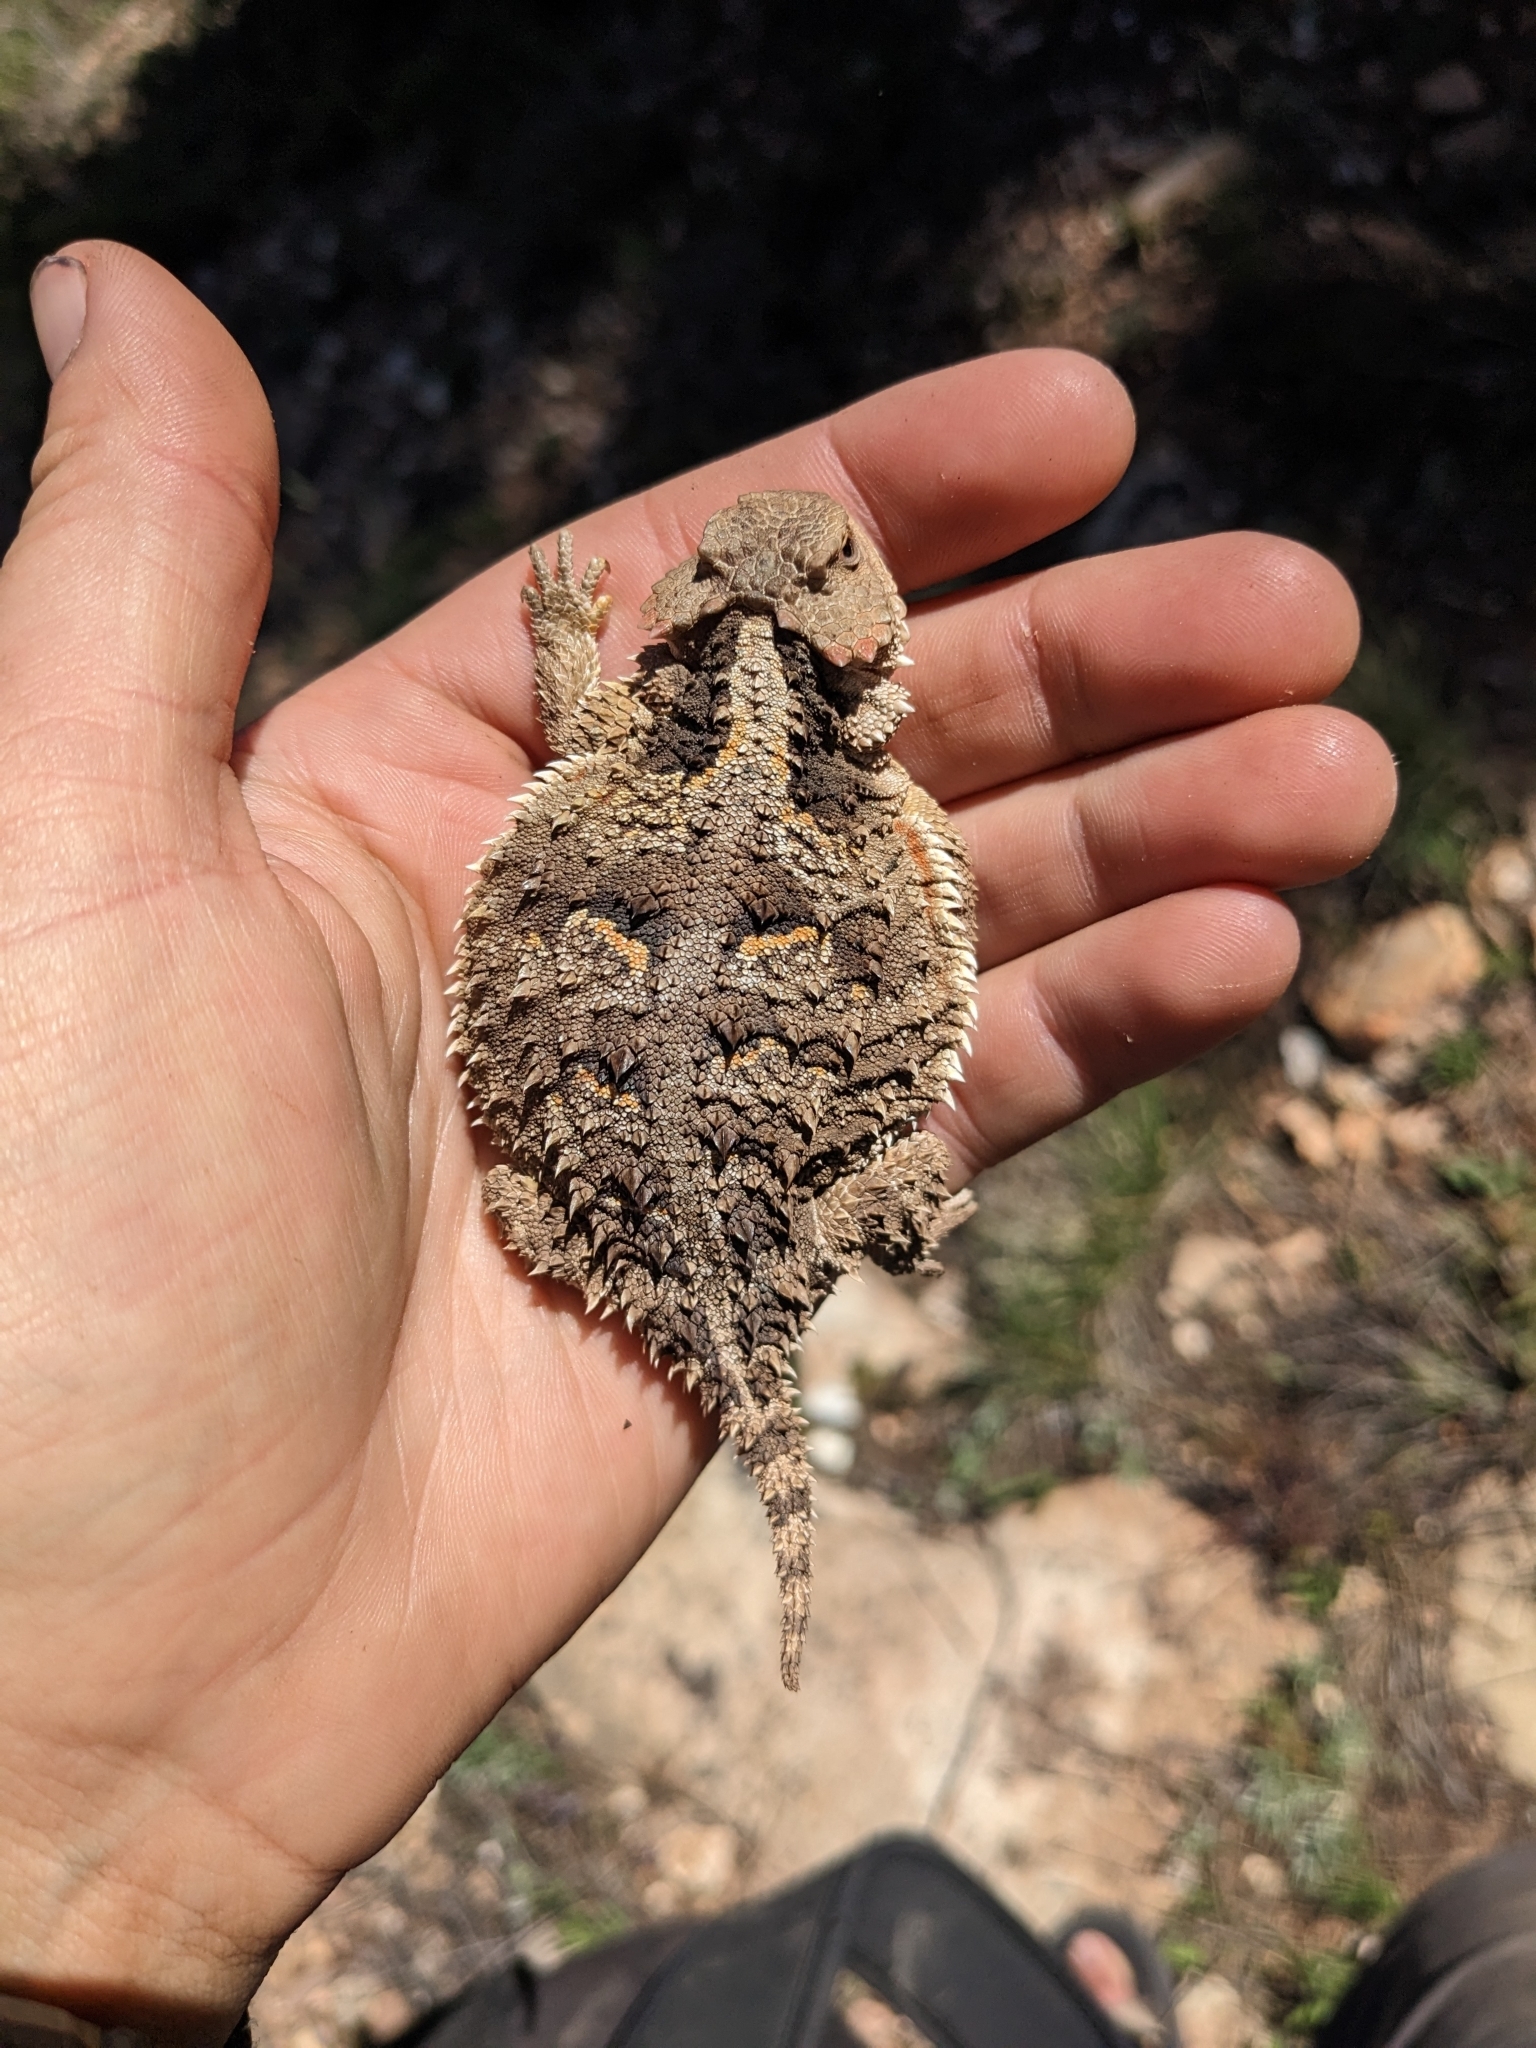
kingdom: Animalia
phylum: Chordata
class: Squamata
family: Phrynosomatidae
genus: Phrynosoma
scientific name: Phrynosoma hernandesi
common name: Greater short-horned lizard
